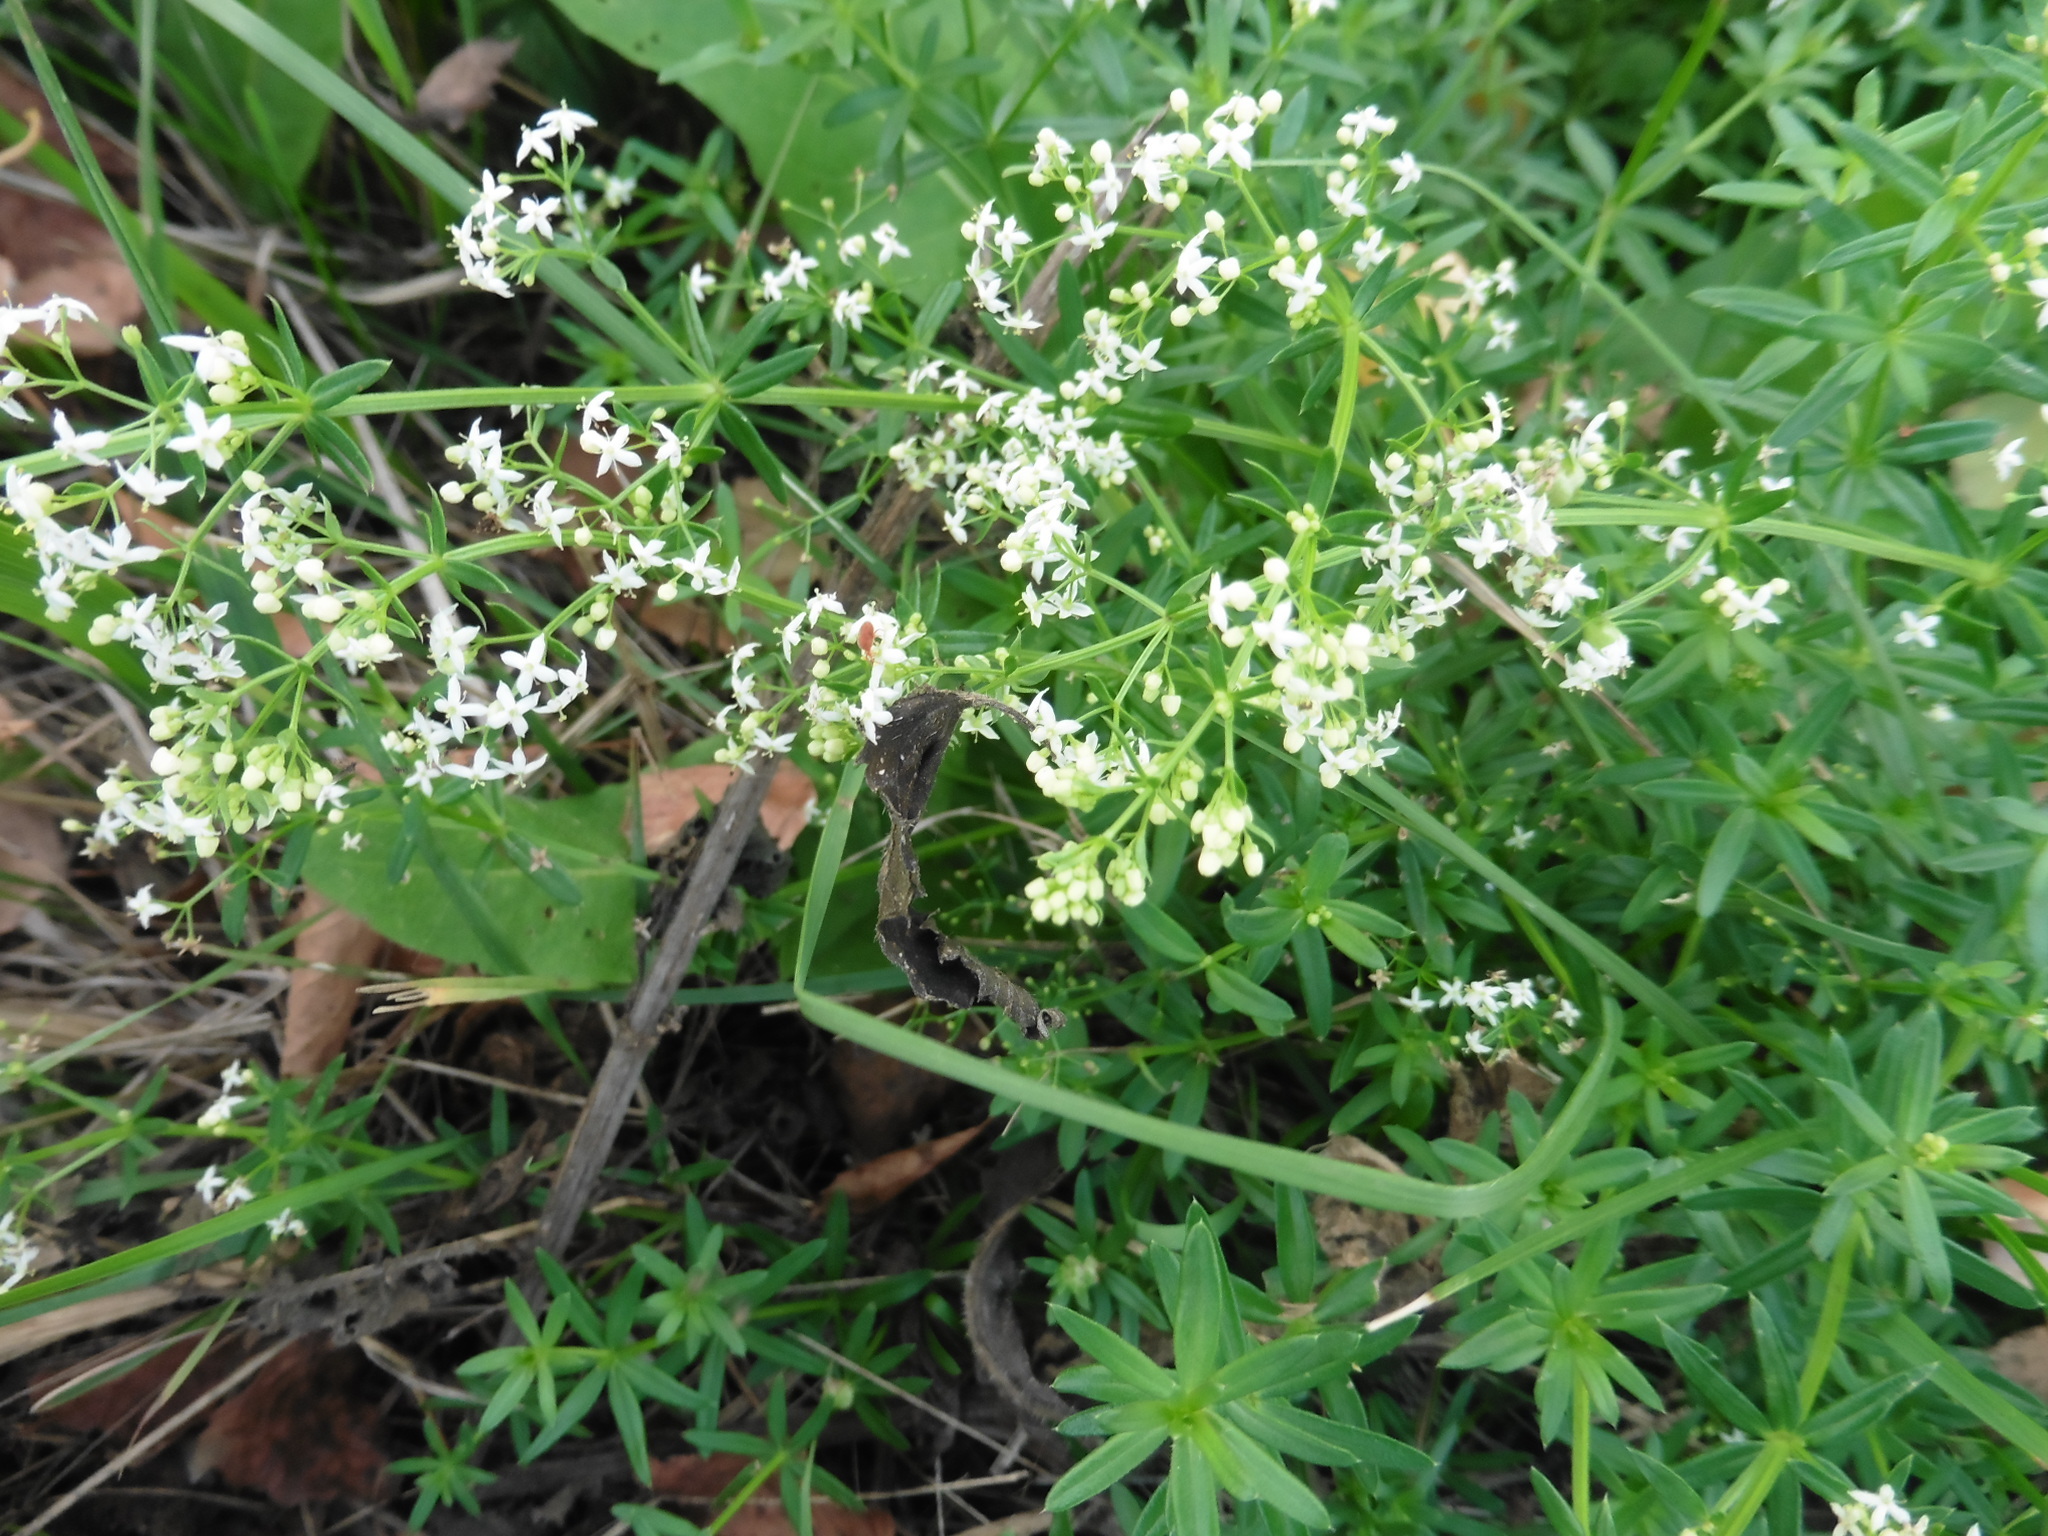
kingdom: Plantae
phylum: Tracheophyta
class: Magnoliopsida
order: Gentianales
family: Rubiaceae
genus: Galium
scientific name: Galium mollugo
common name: Hedge bedstraw
